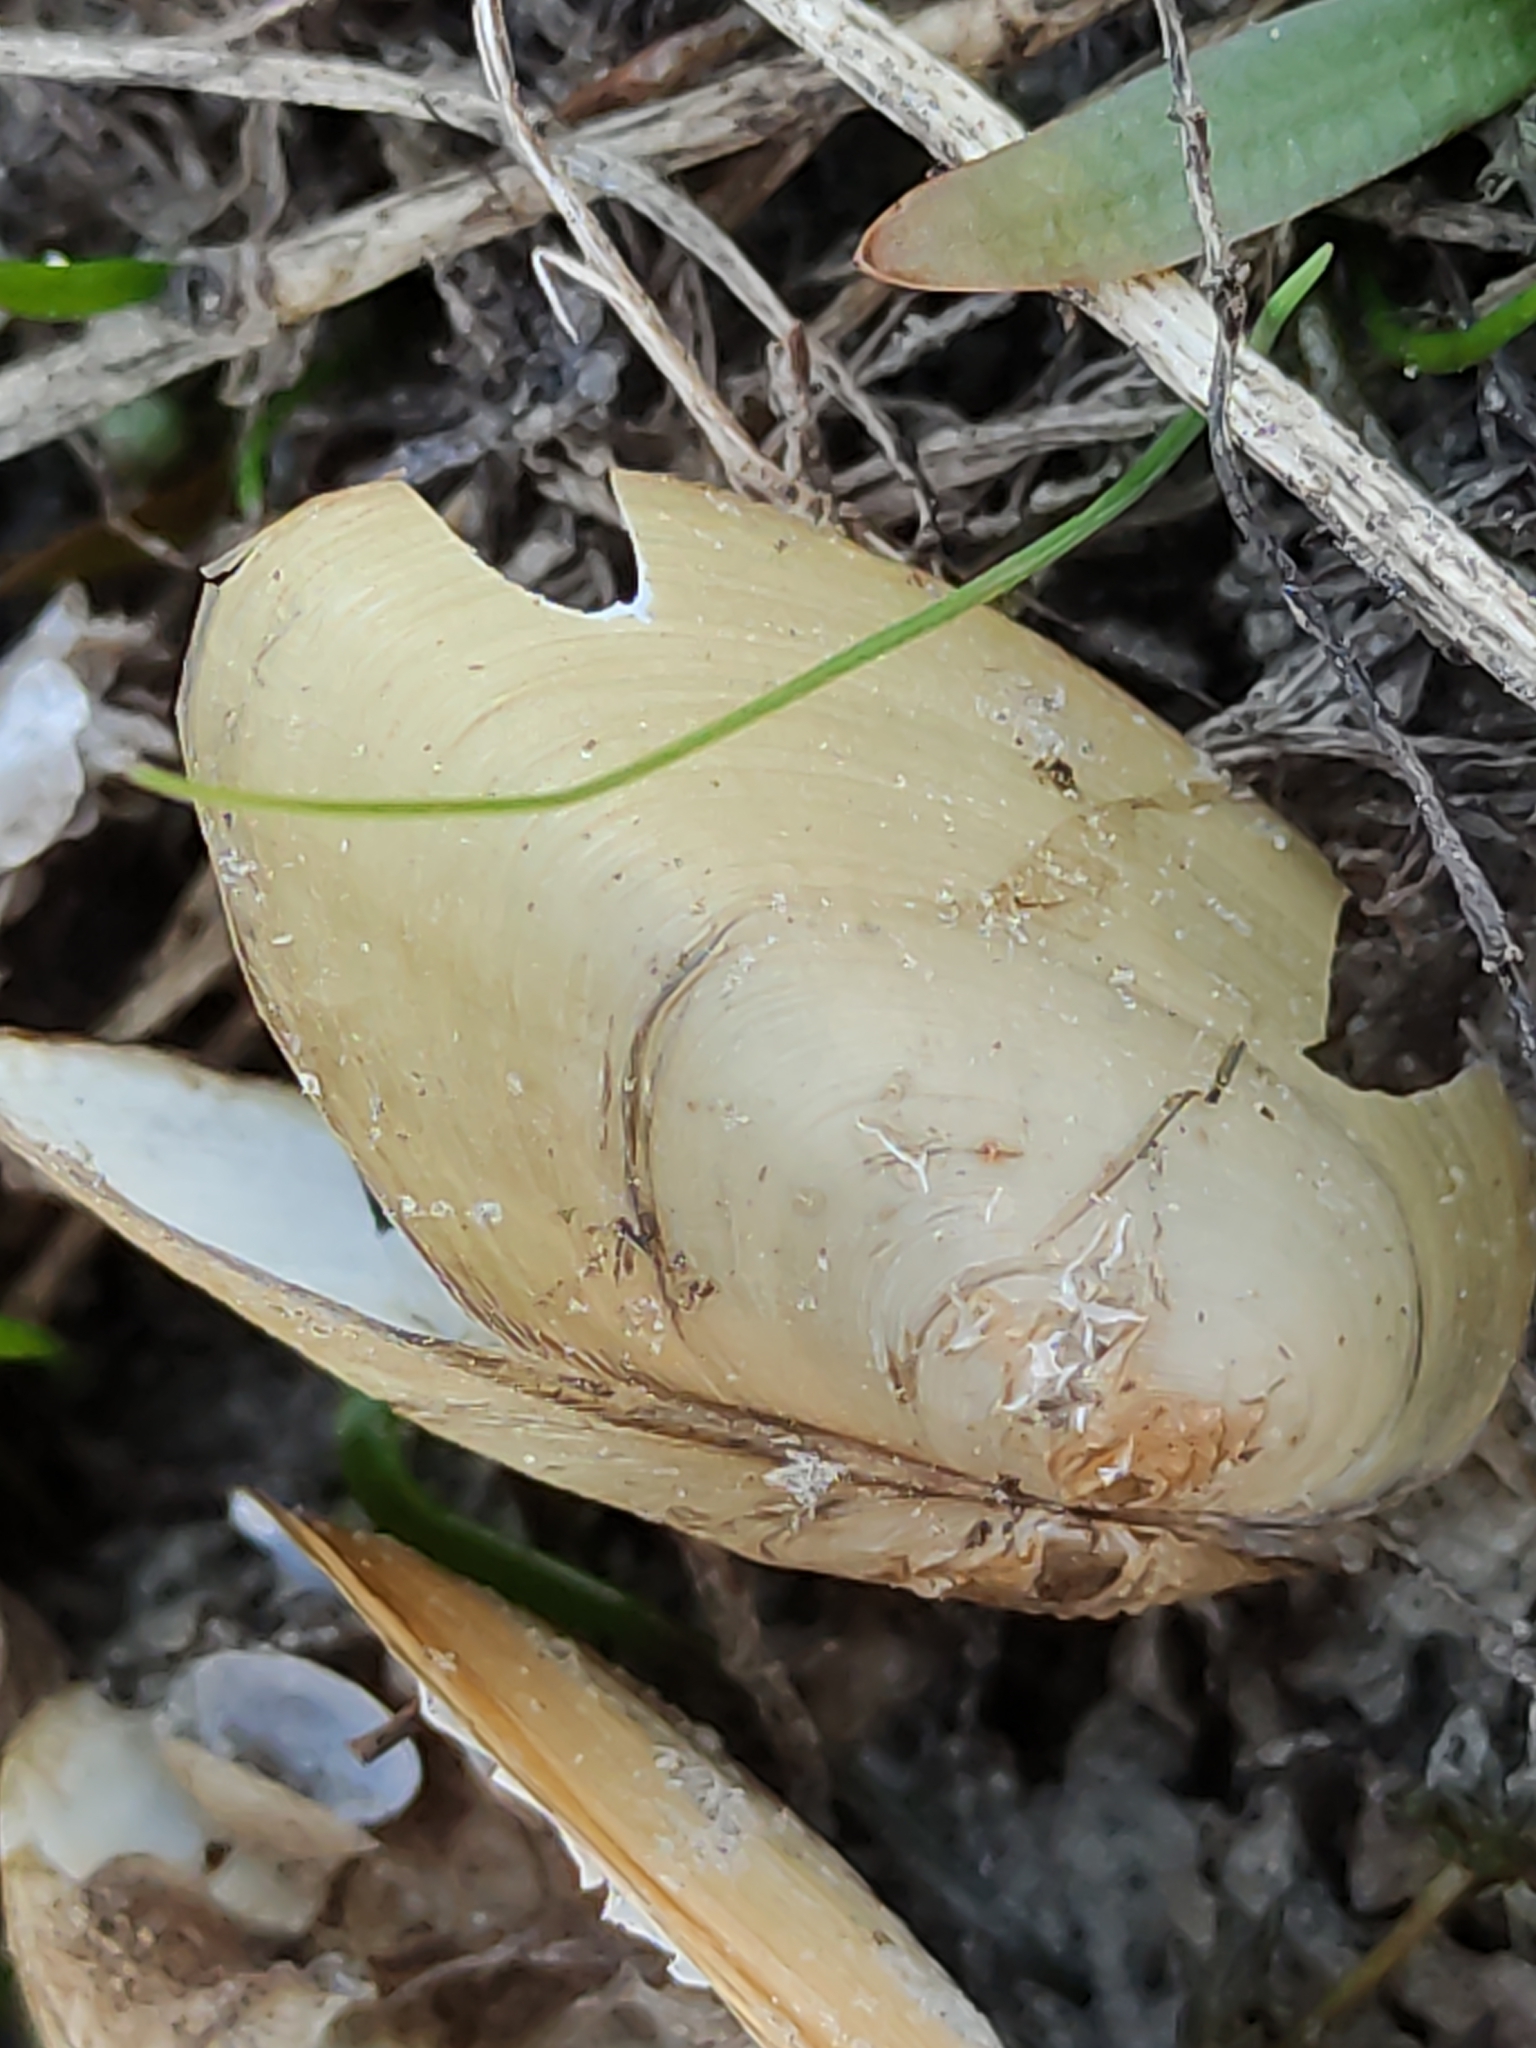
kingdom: Animalia
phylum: Mollusca
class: Bivalvia
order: Unionida
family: Hyriidae
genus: Echyridella
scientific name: Echyridella menziesii
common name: New zealand freshwater mussel
